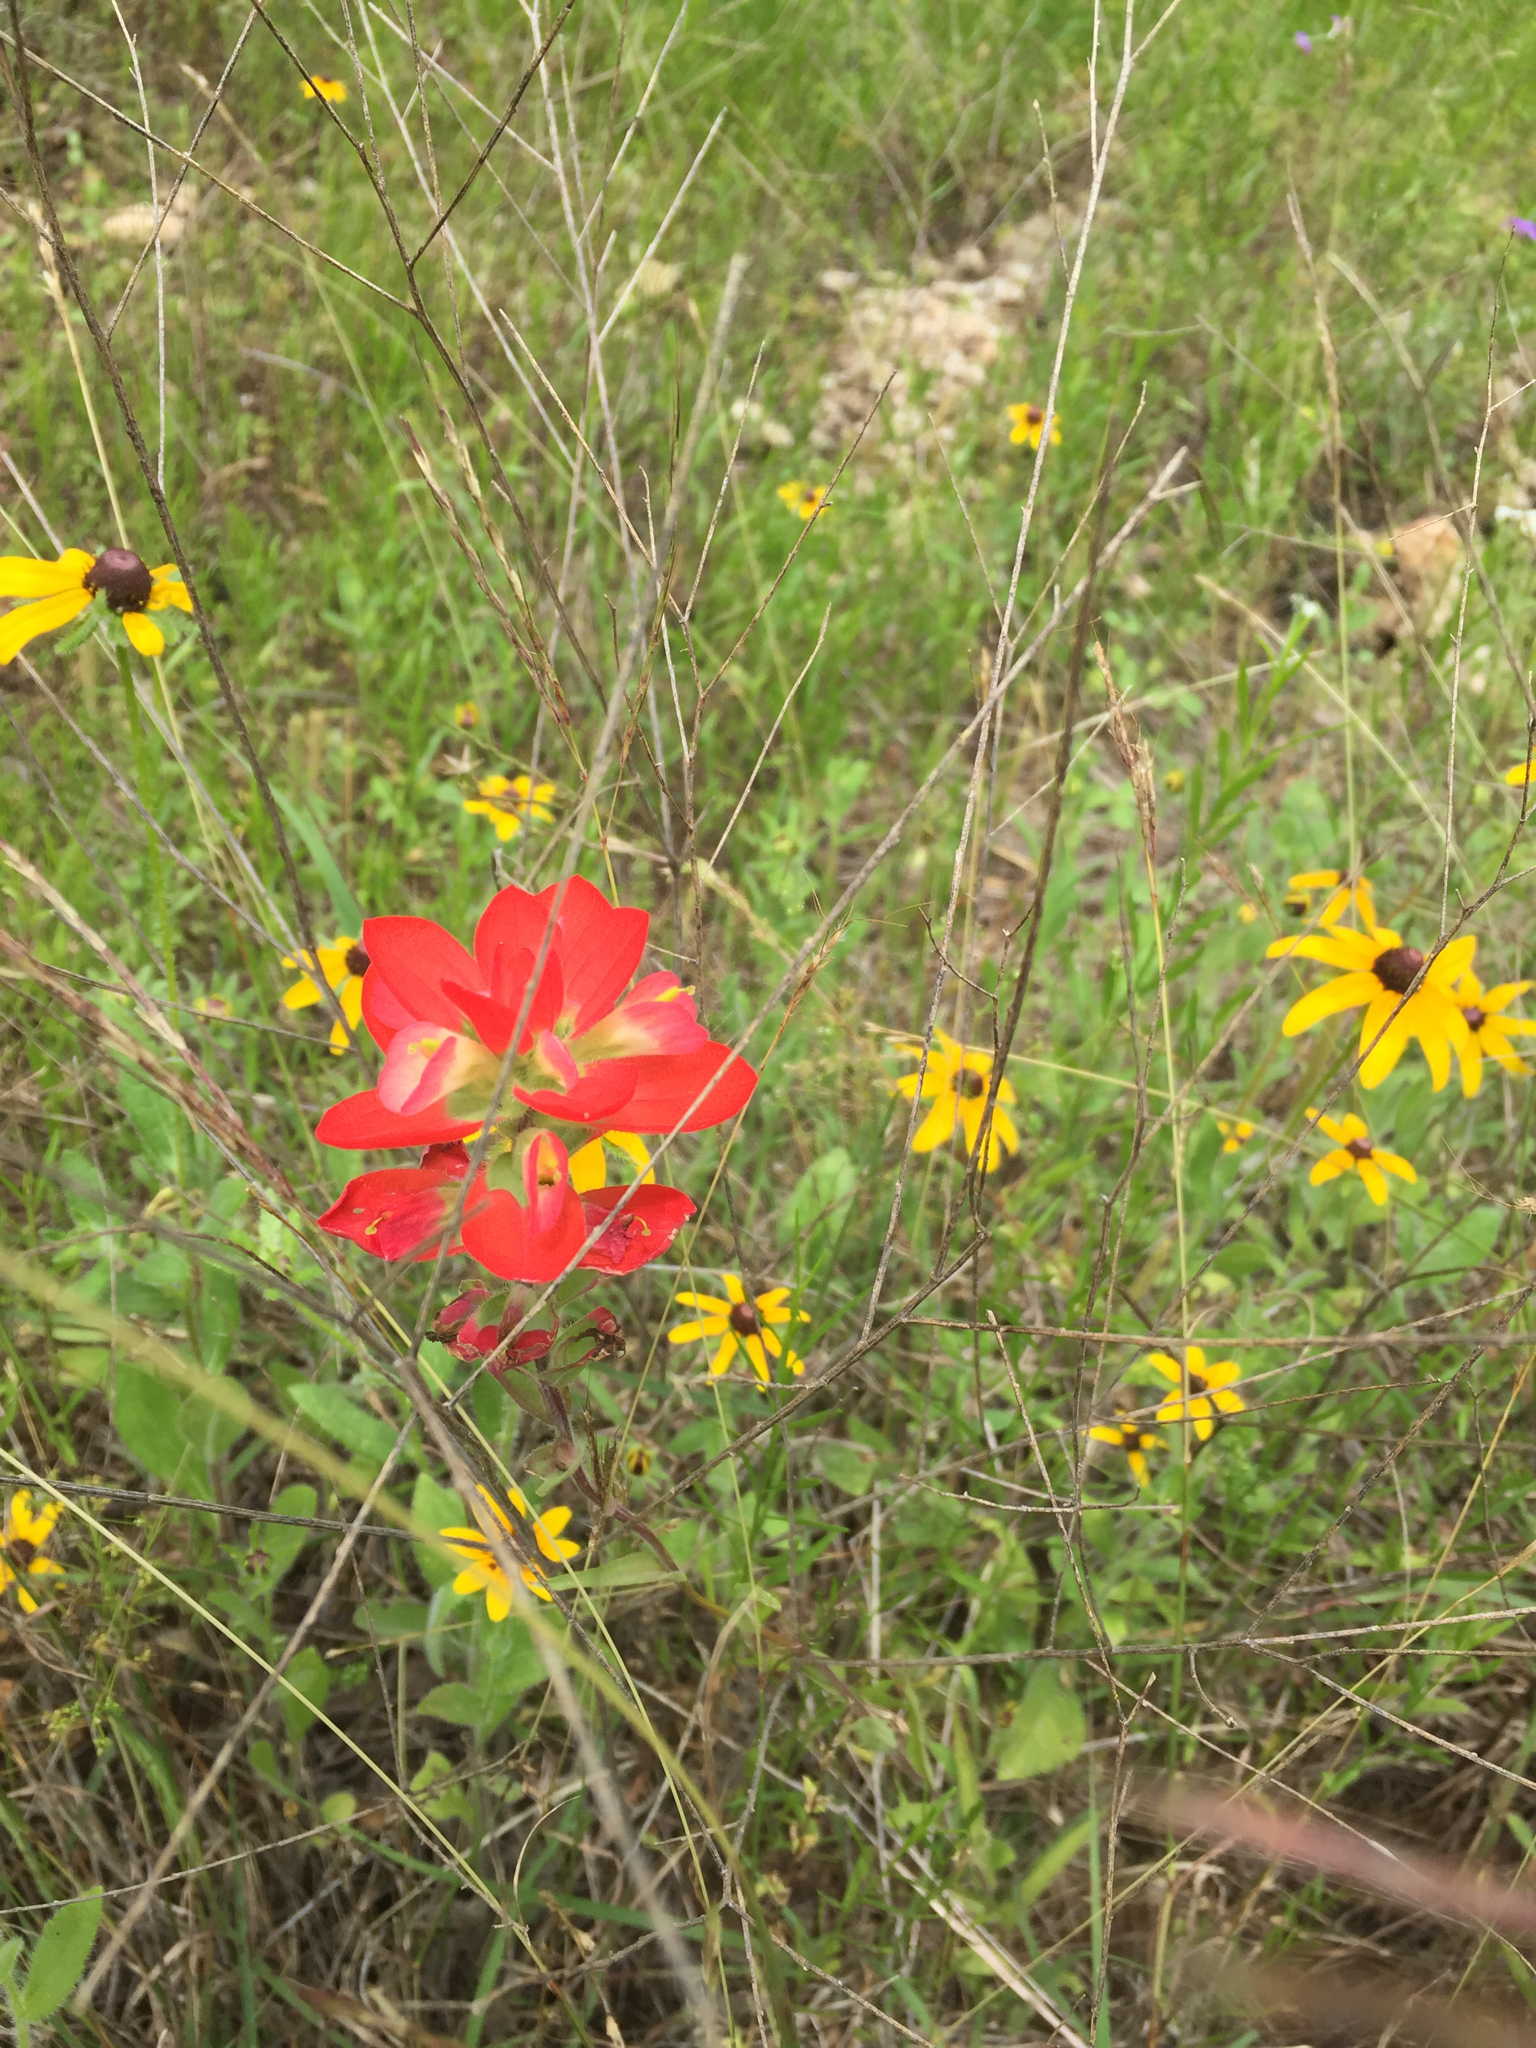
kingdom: Plantae
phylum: Tracheophyta
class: Magnoliopsida
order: Lamiales
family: Orobanchaceae
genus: Castilleja
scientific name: Castilleja indivisa
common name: Texas paintbrush
